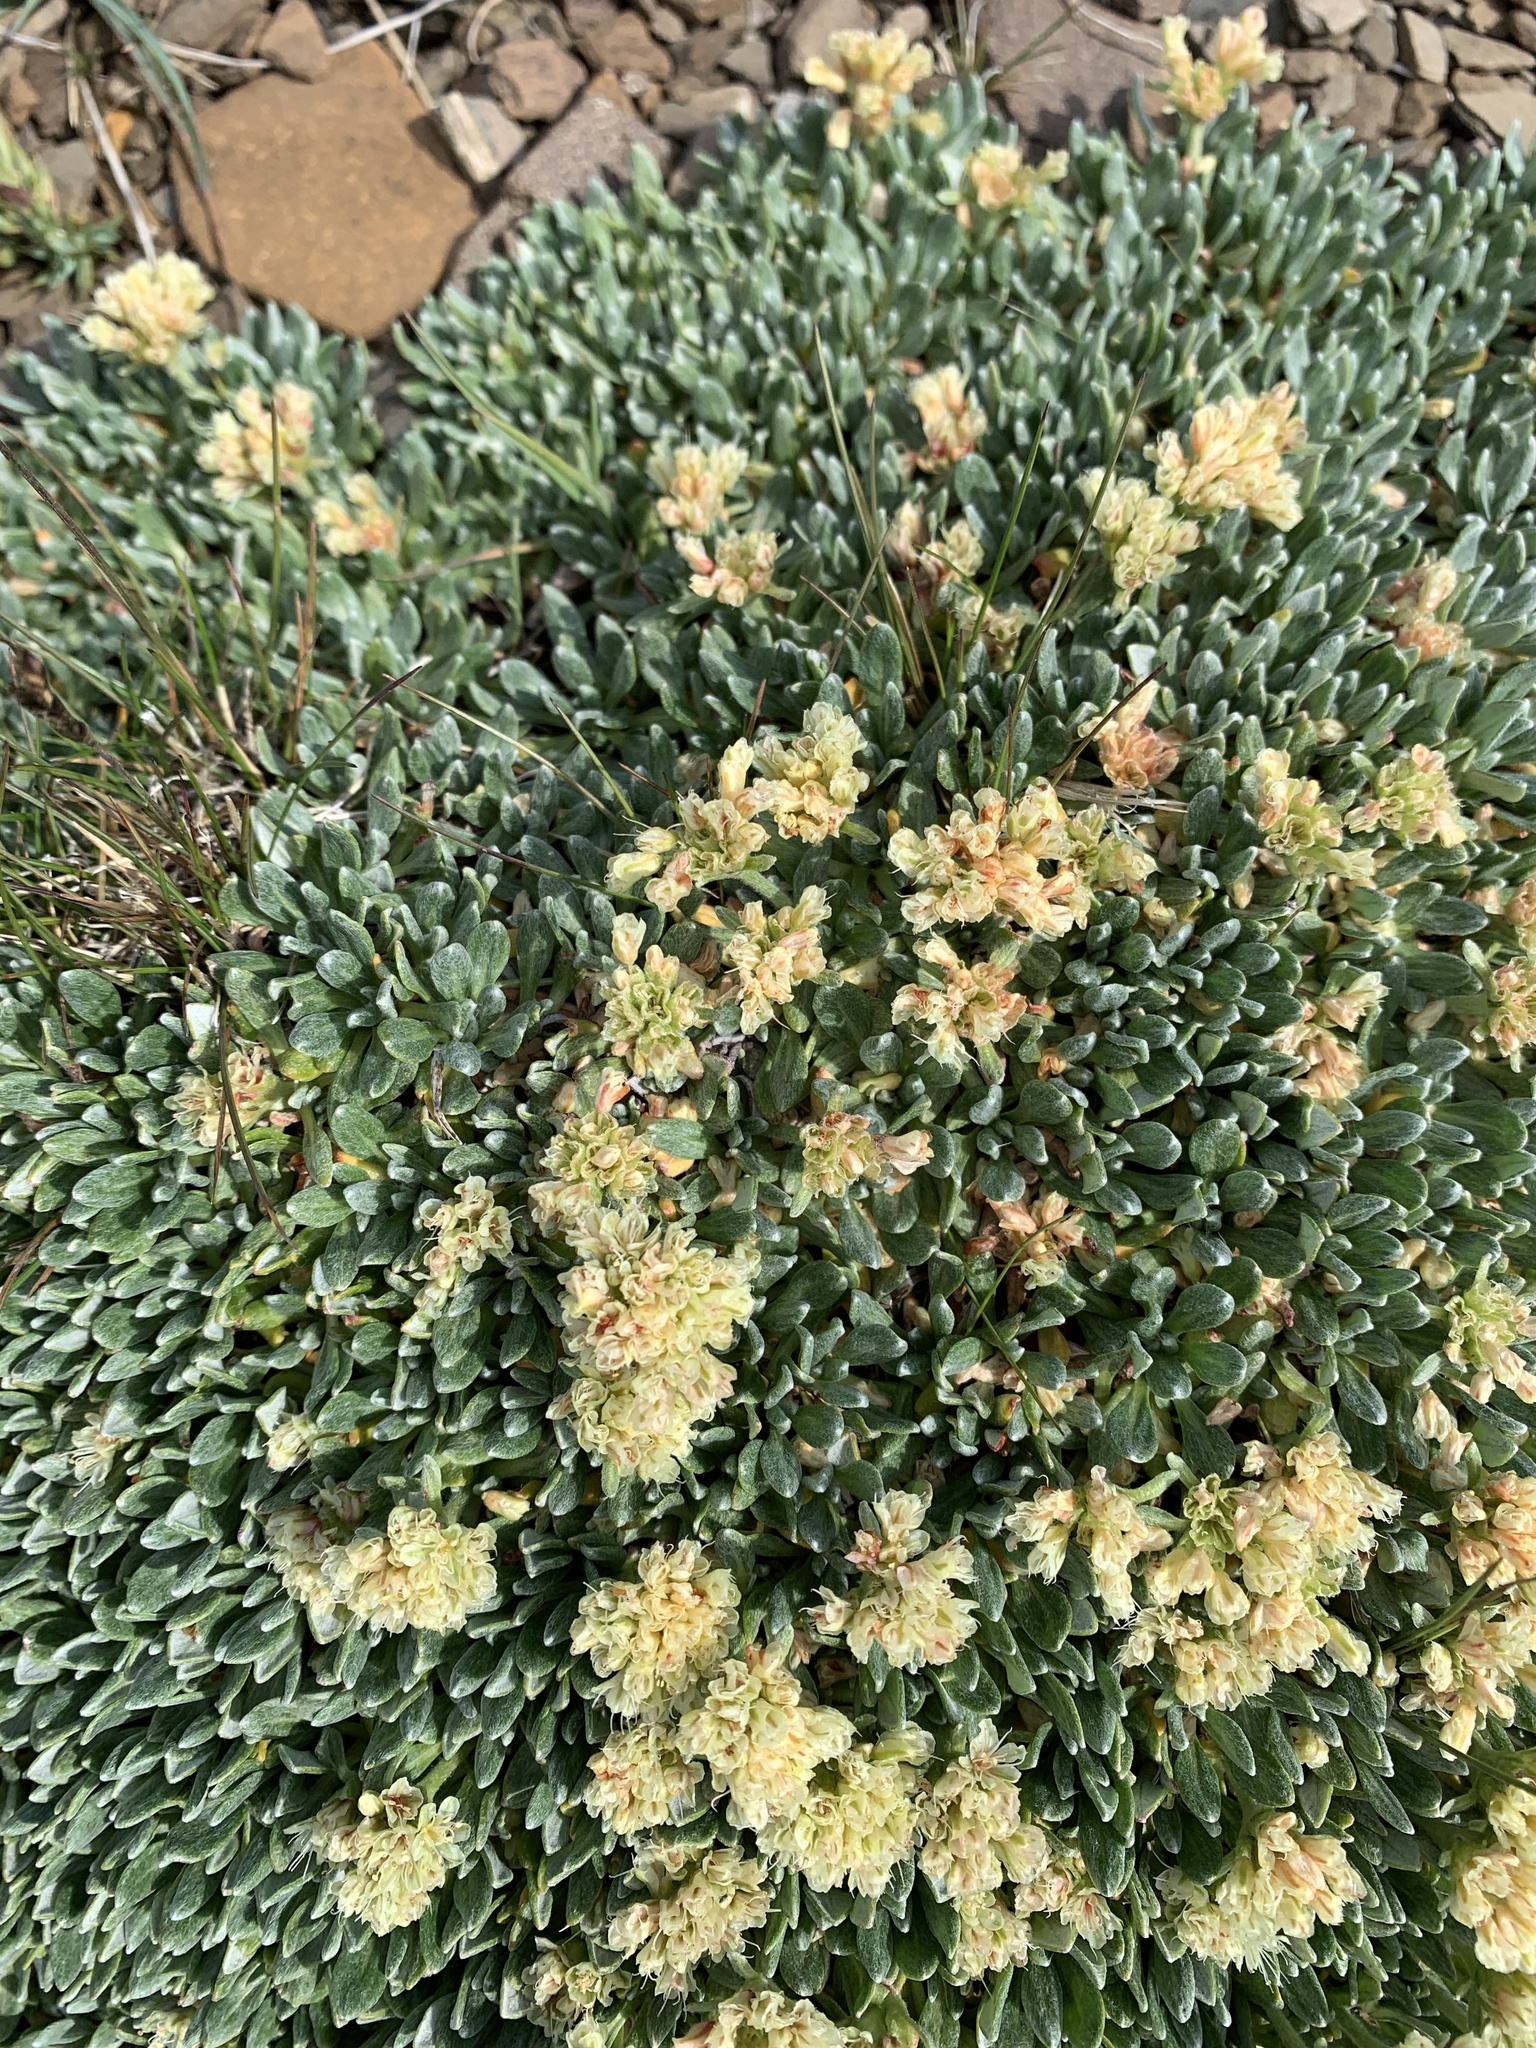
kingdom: Plantae
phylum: Tracheophyta
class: Magnoliopsida
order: Caryophyllales
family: Polygonaceae
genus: Eriogonum
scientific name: Eriogonum androsaceum
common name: Rock-jasmine wild buckwheat
